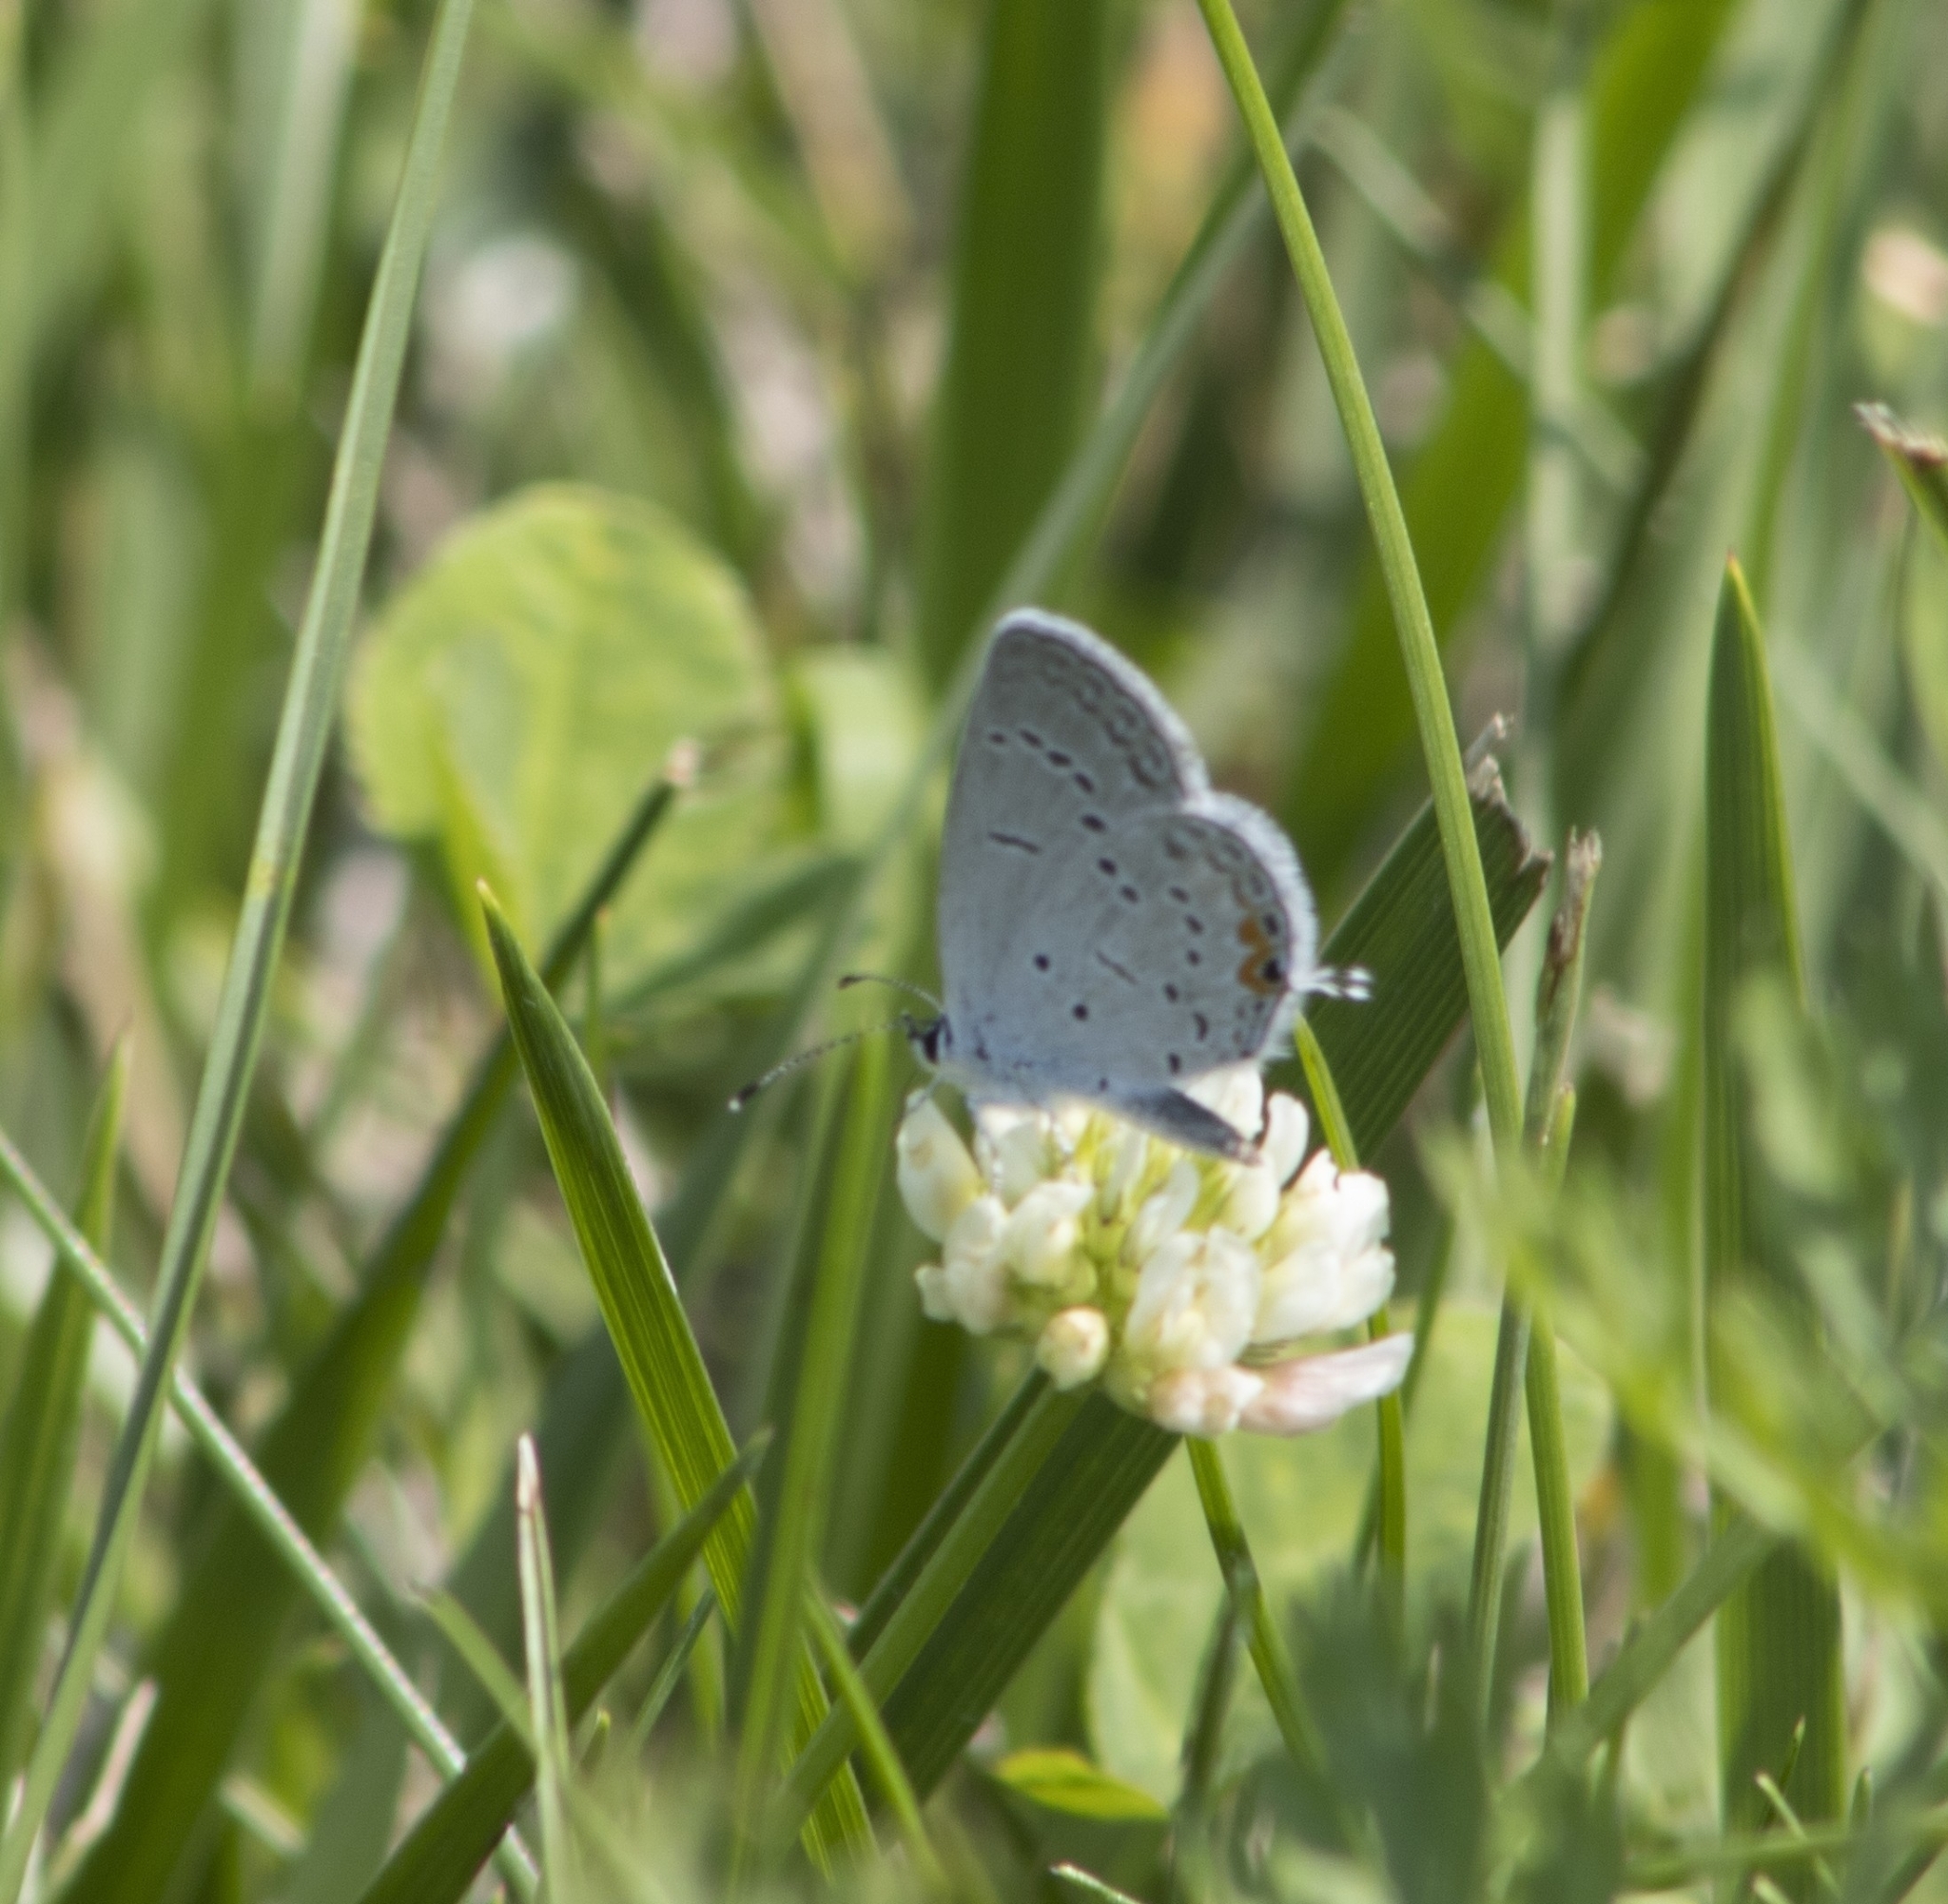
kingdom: Animalia
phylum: Arthropoda
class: Insecta
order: Lepidoptera
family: Lycaenidae
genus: Elkalyce
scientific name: Elkalyce comyntas
